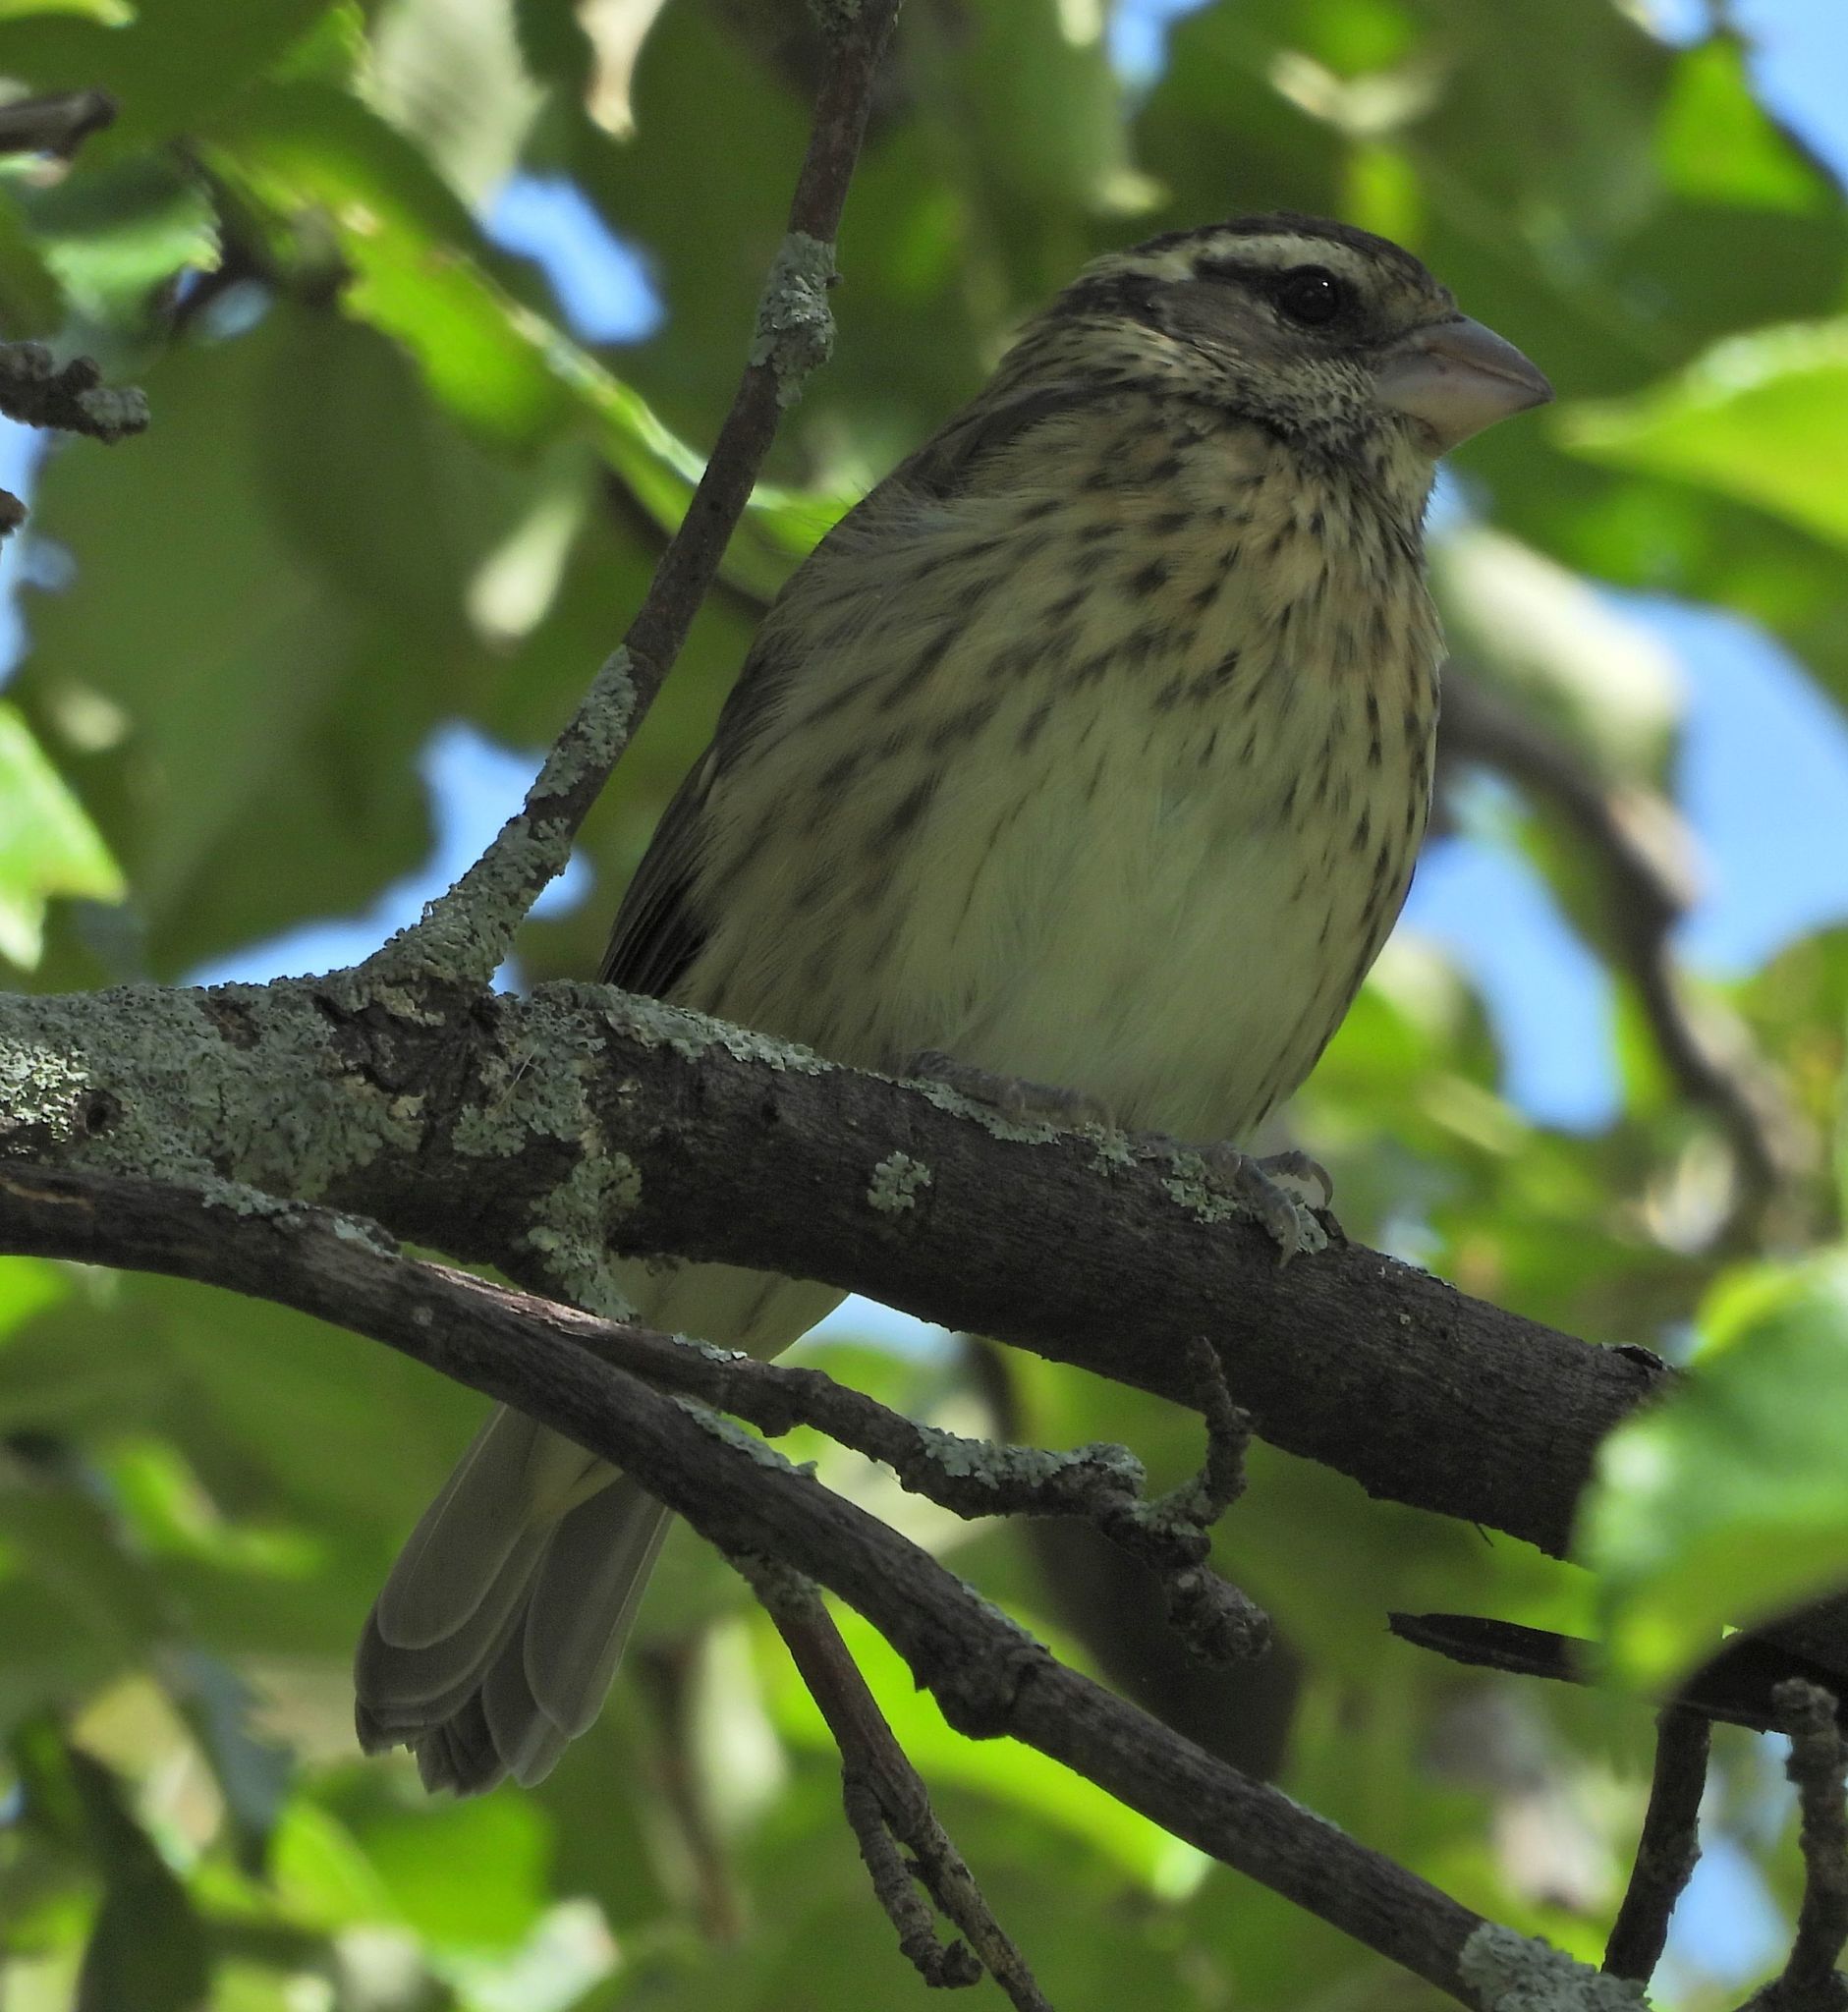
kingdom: Animalia
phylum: Chordata
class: Aves
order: Passeriformes
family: Cardinalidae
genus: Pheucticus
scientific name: Pheucticus ludovicianus
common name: Rose-breasted grosbeak
